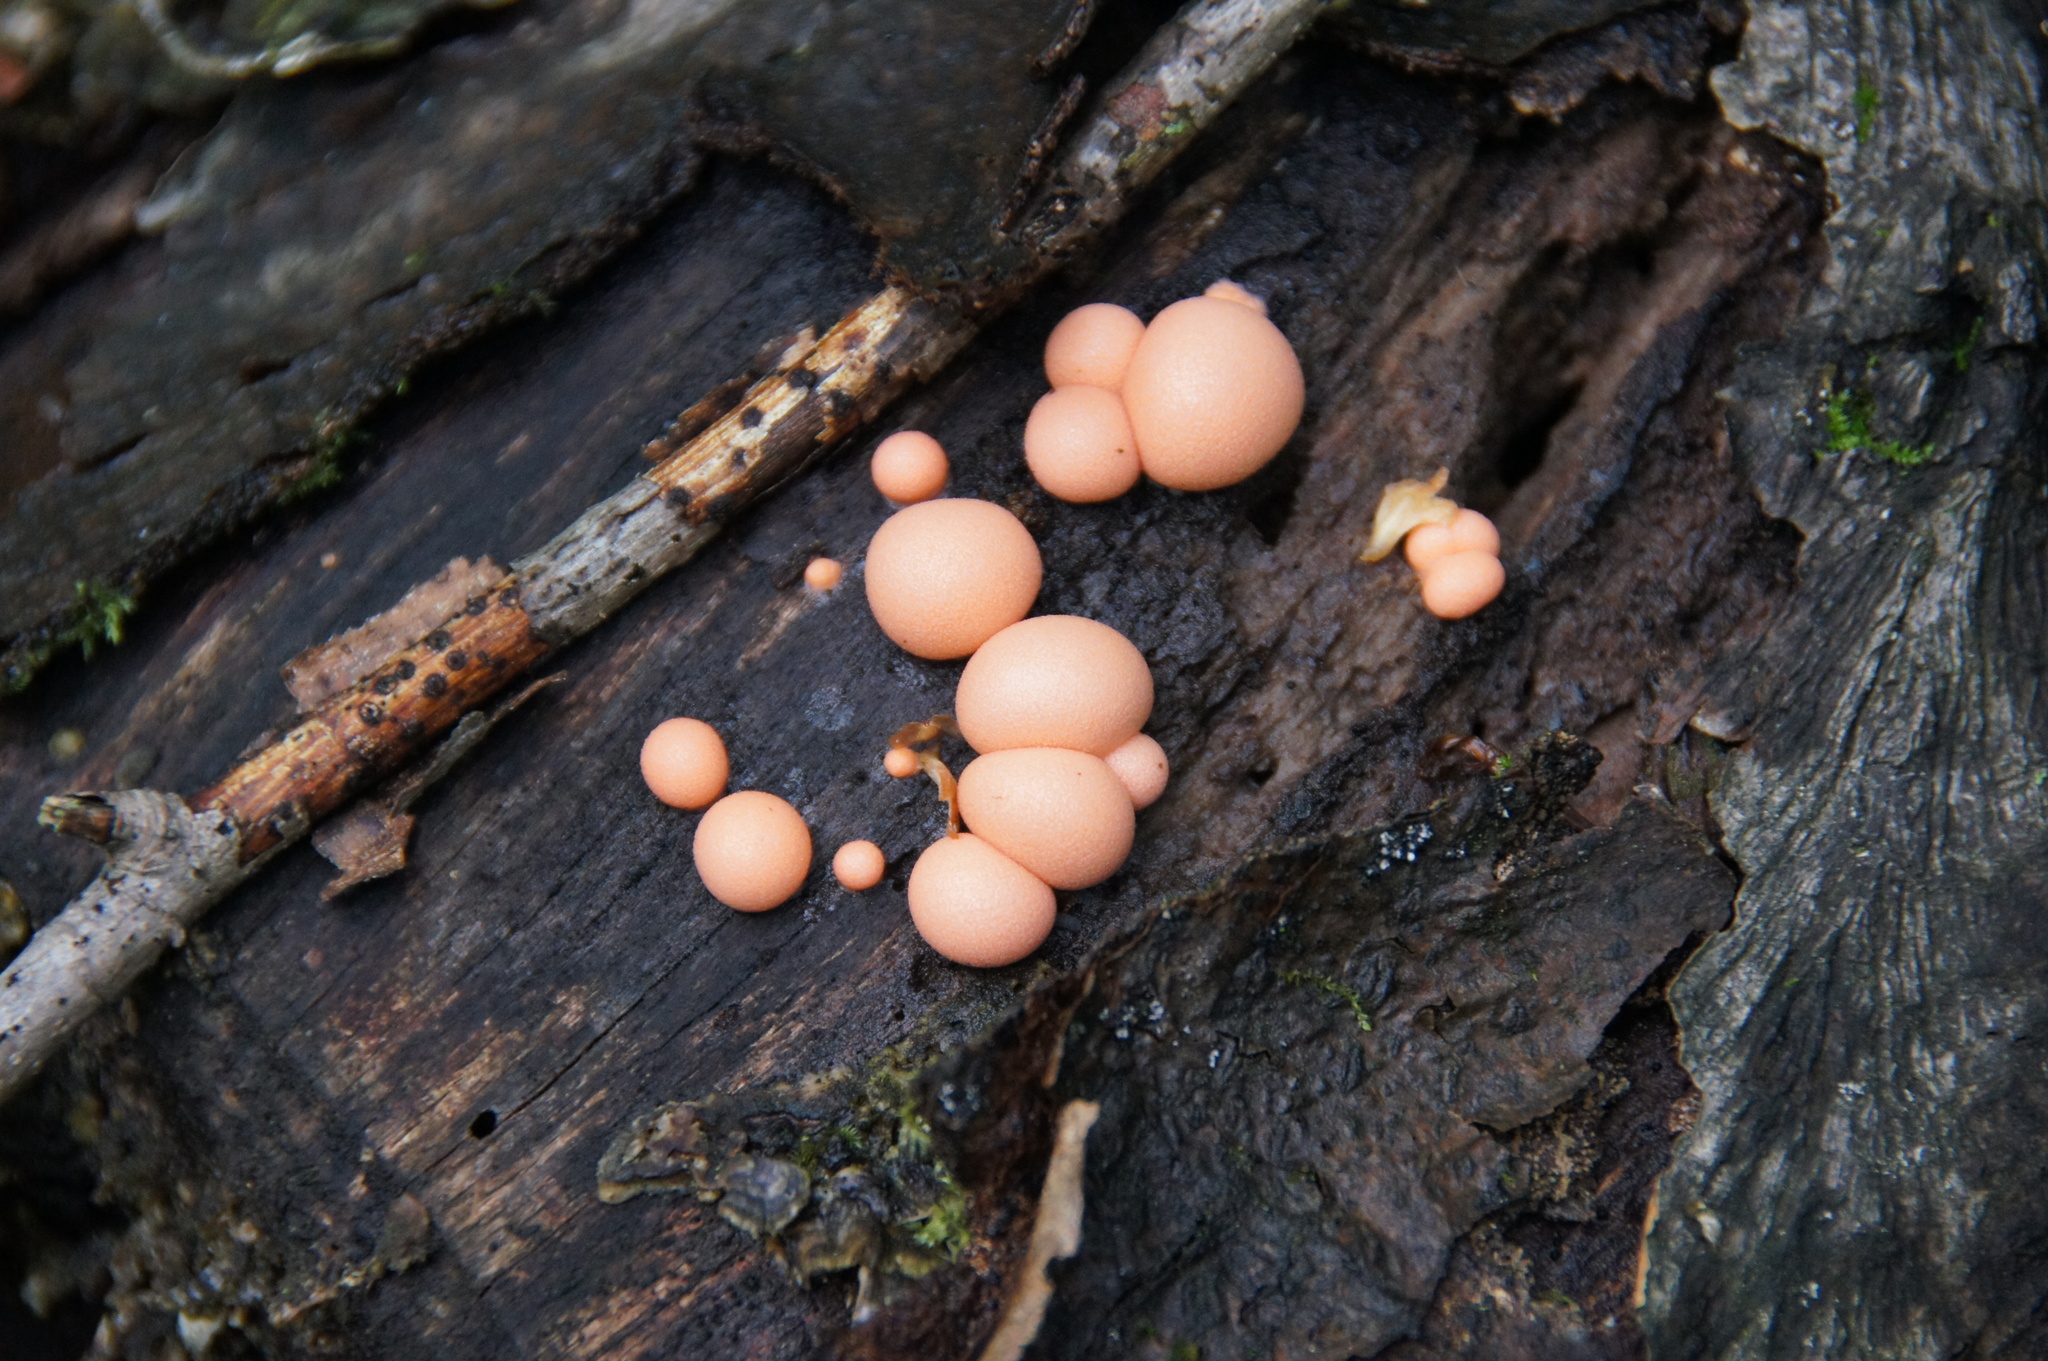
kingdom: Protozoa
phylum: Mycetozoa
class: Myxomycetes
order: Cribrariales
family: Tubiferaceae
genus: Lycogala
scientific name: Lycogala epidendrum
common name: Wolf's milk
